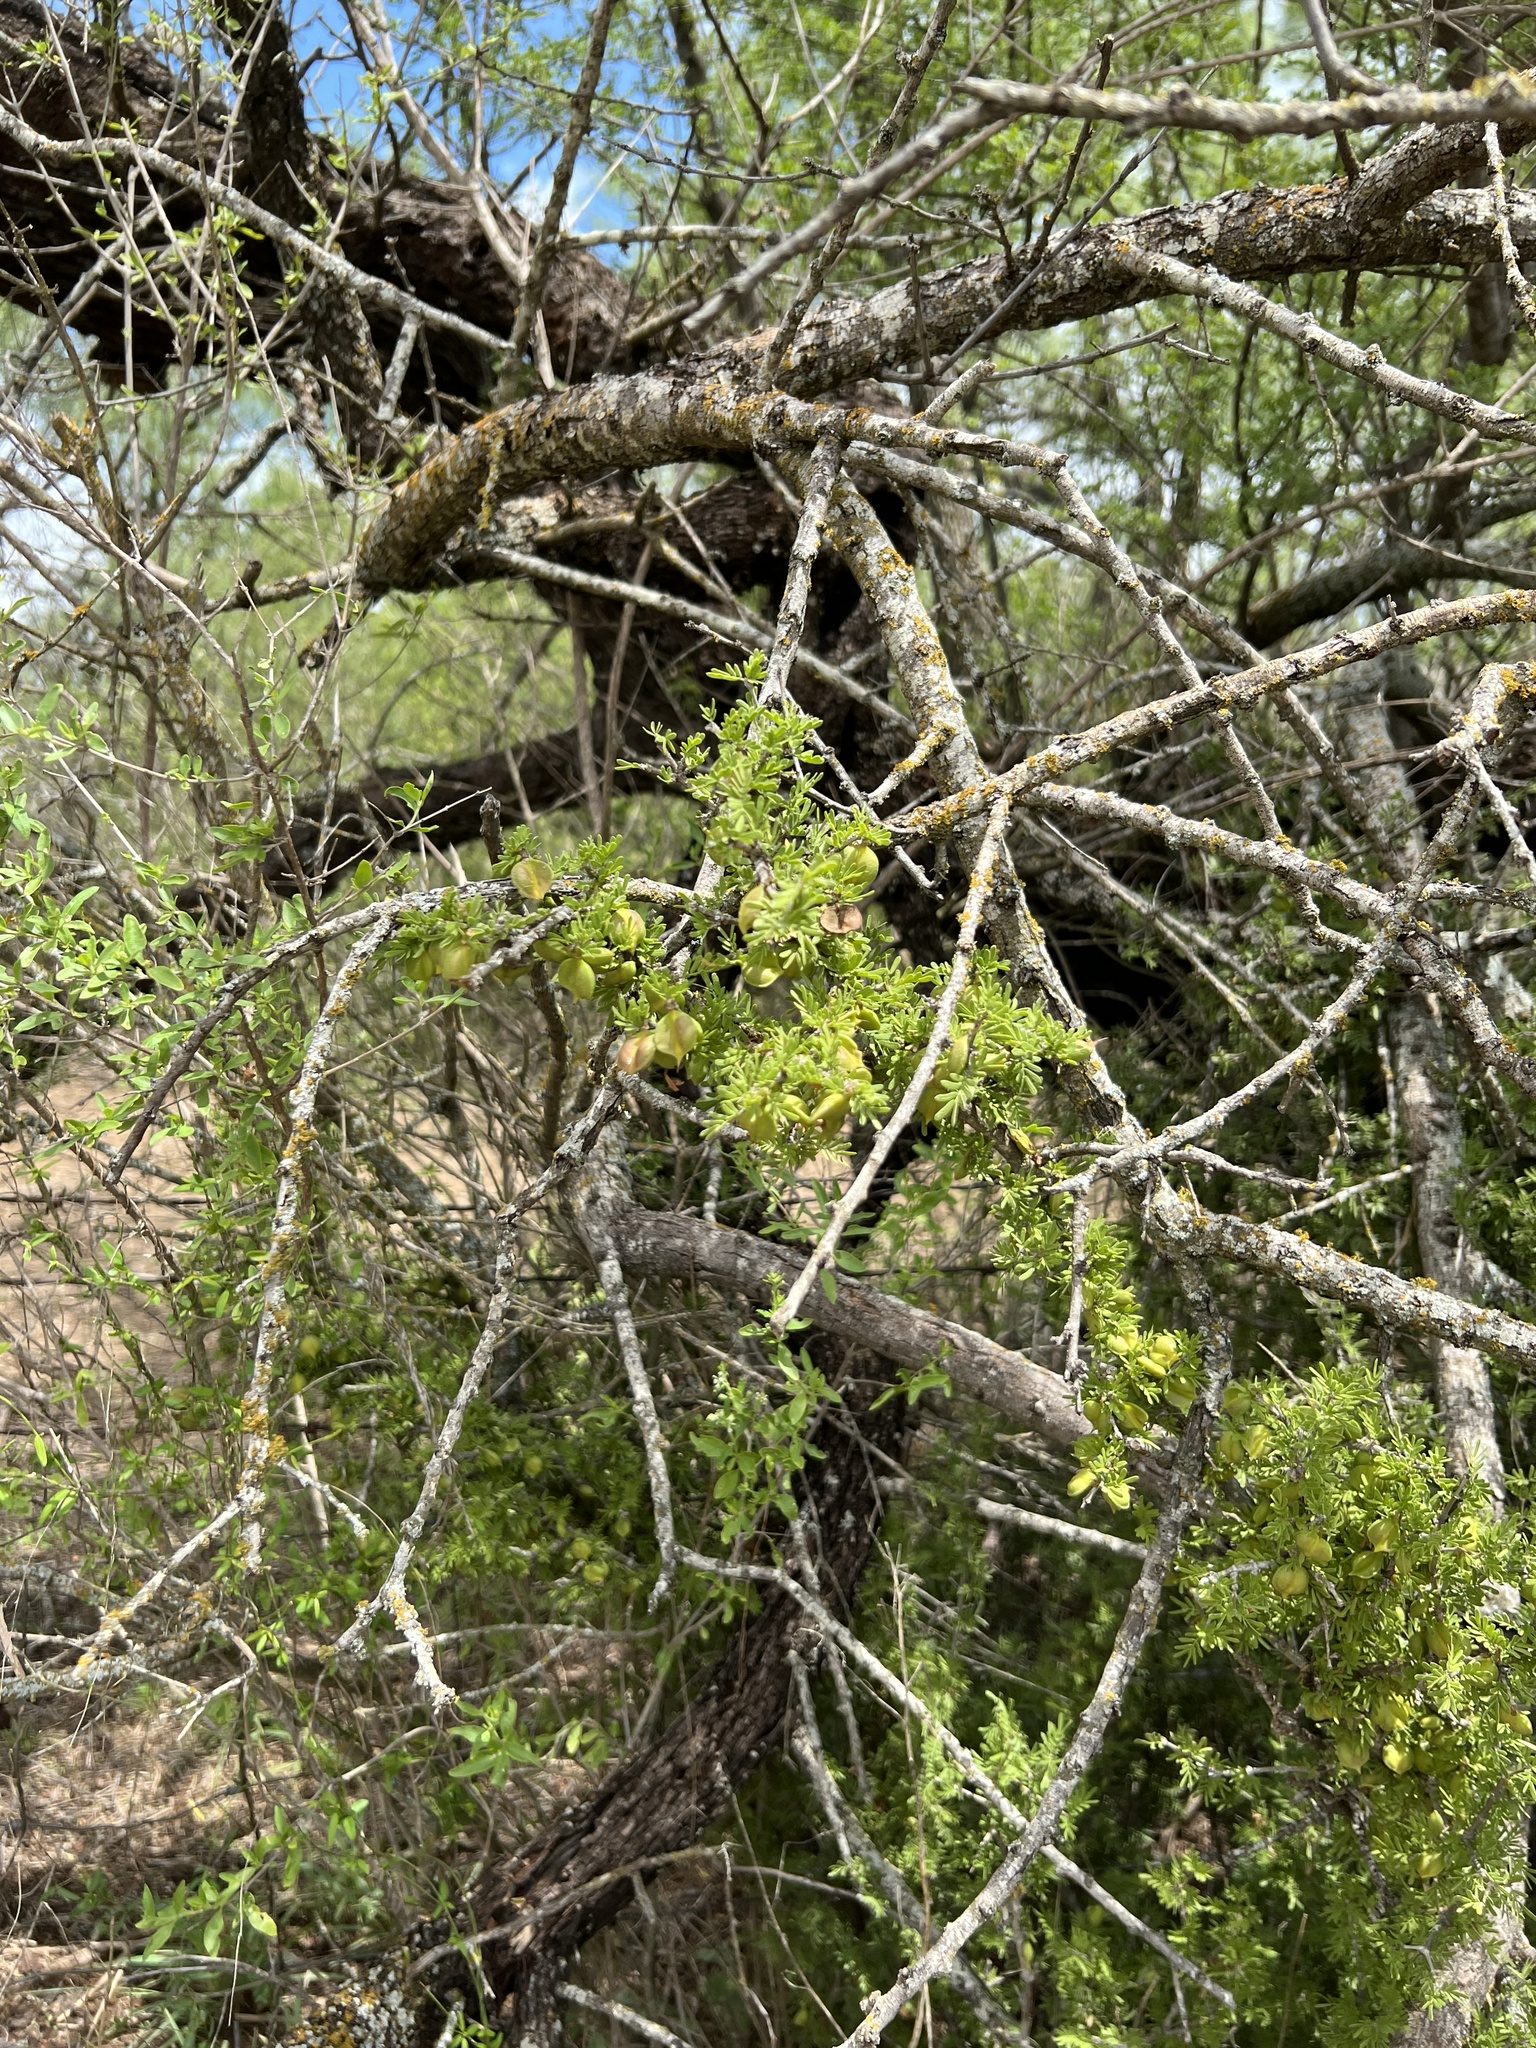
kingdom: Plantae
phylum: Tracheophyta
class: Magnoliopsida
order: Zygophyllales
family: Zygophyllaceae
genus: Porlieria
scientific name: Porlieria angustifolia
